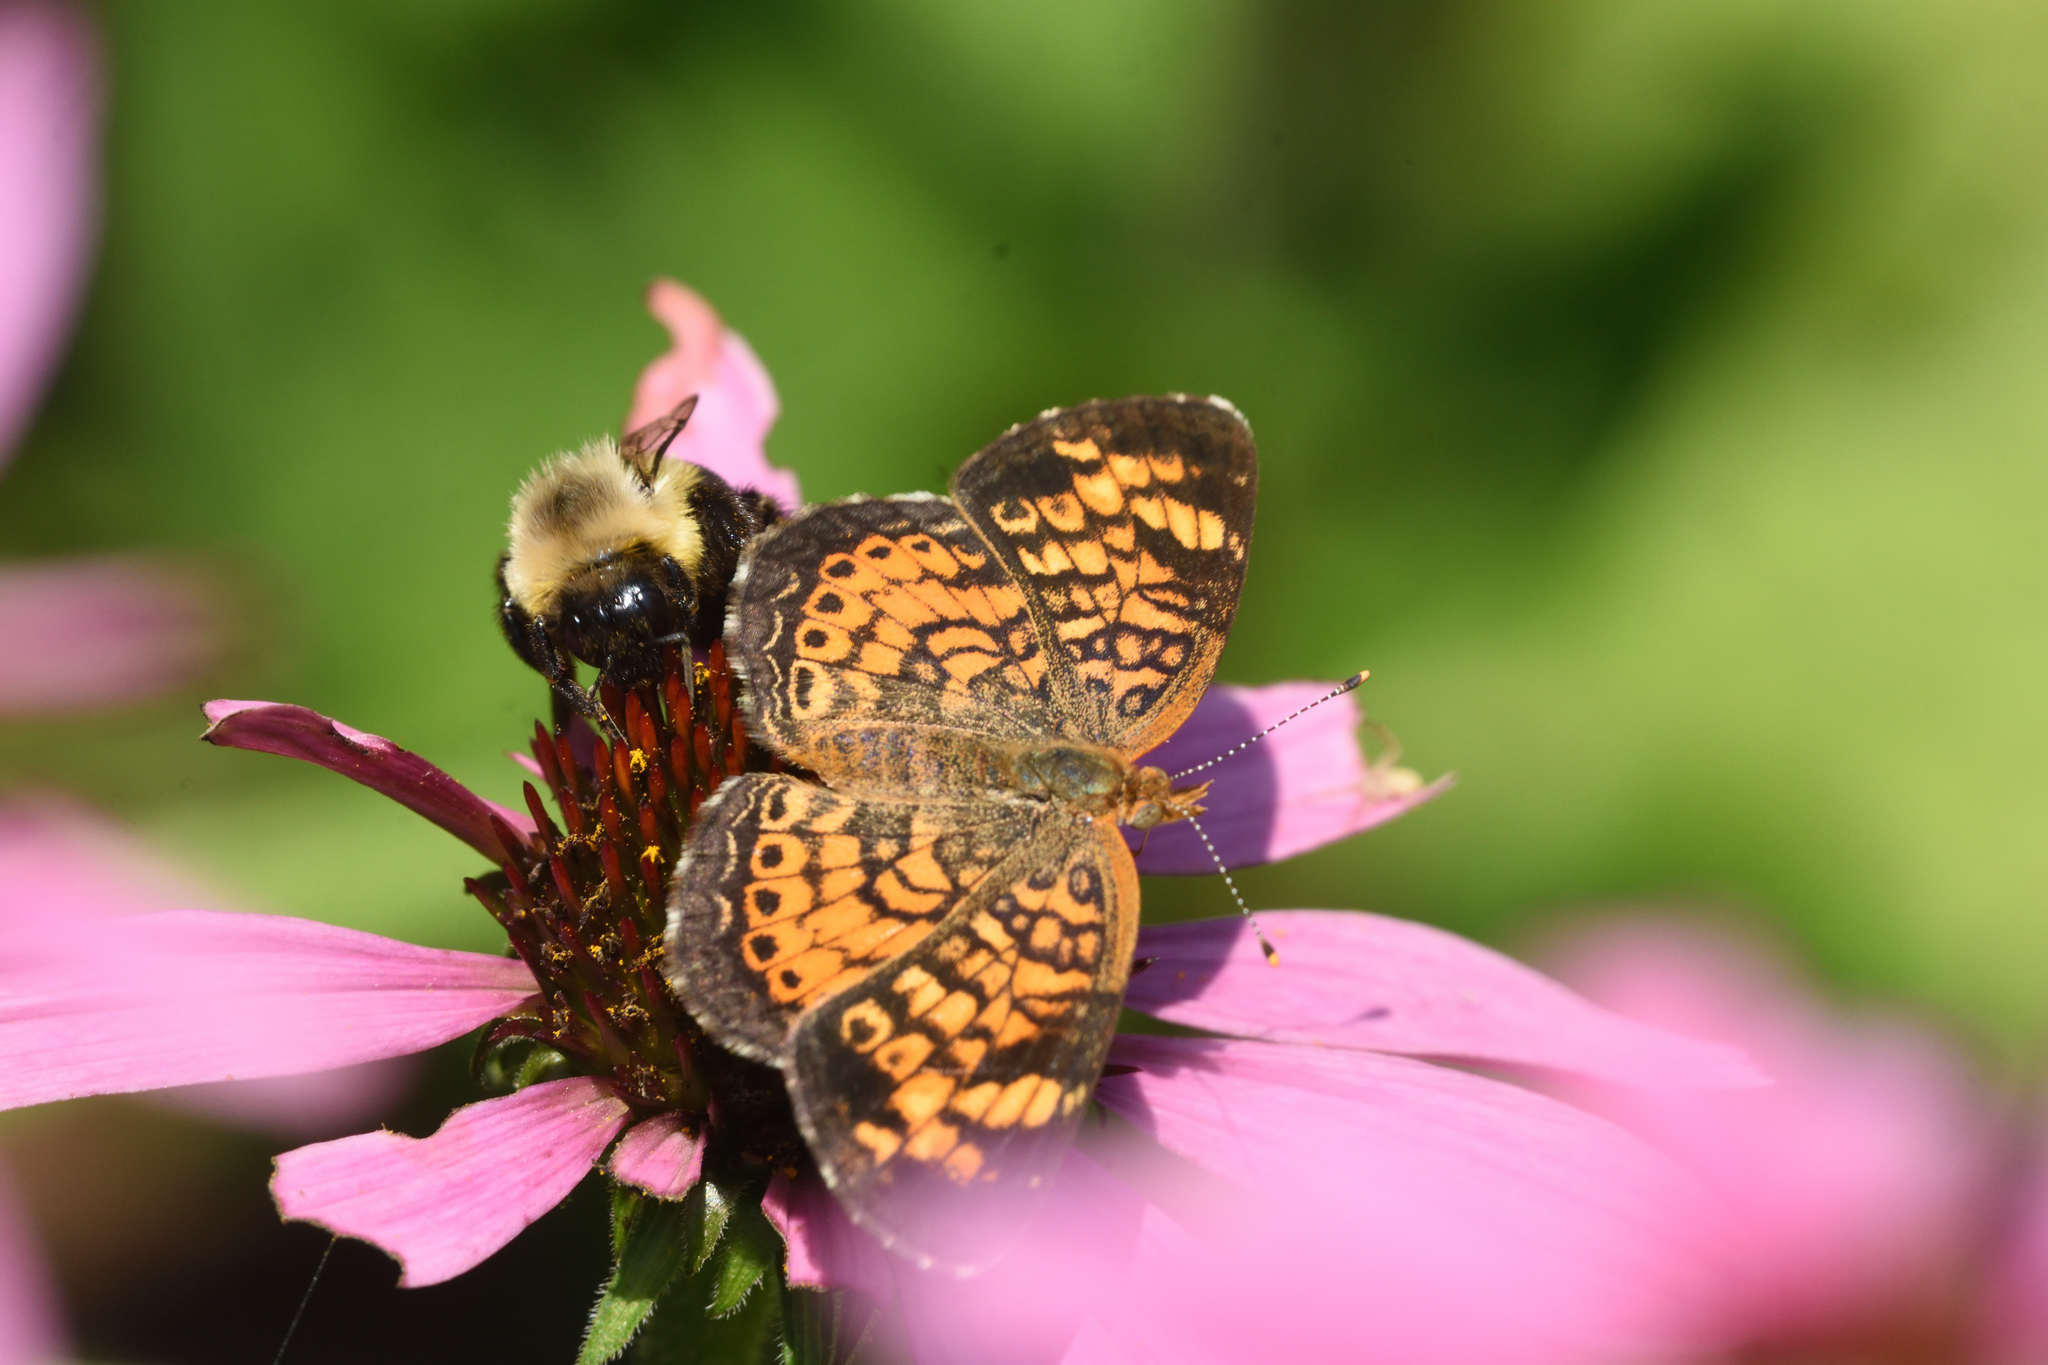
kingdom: Animalia
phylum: Arthropoda
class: Insecta
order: Lepidoptera
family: Nymphalidae
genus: Phyciodes
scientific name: Phyciodes tharos
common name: Pearl crescent
